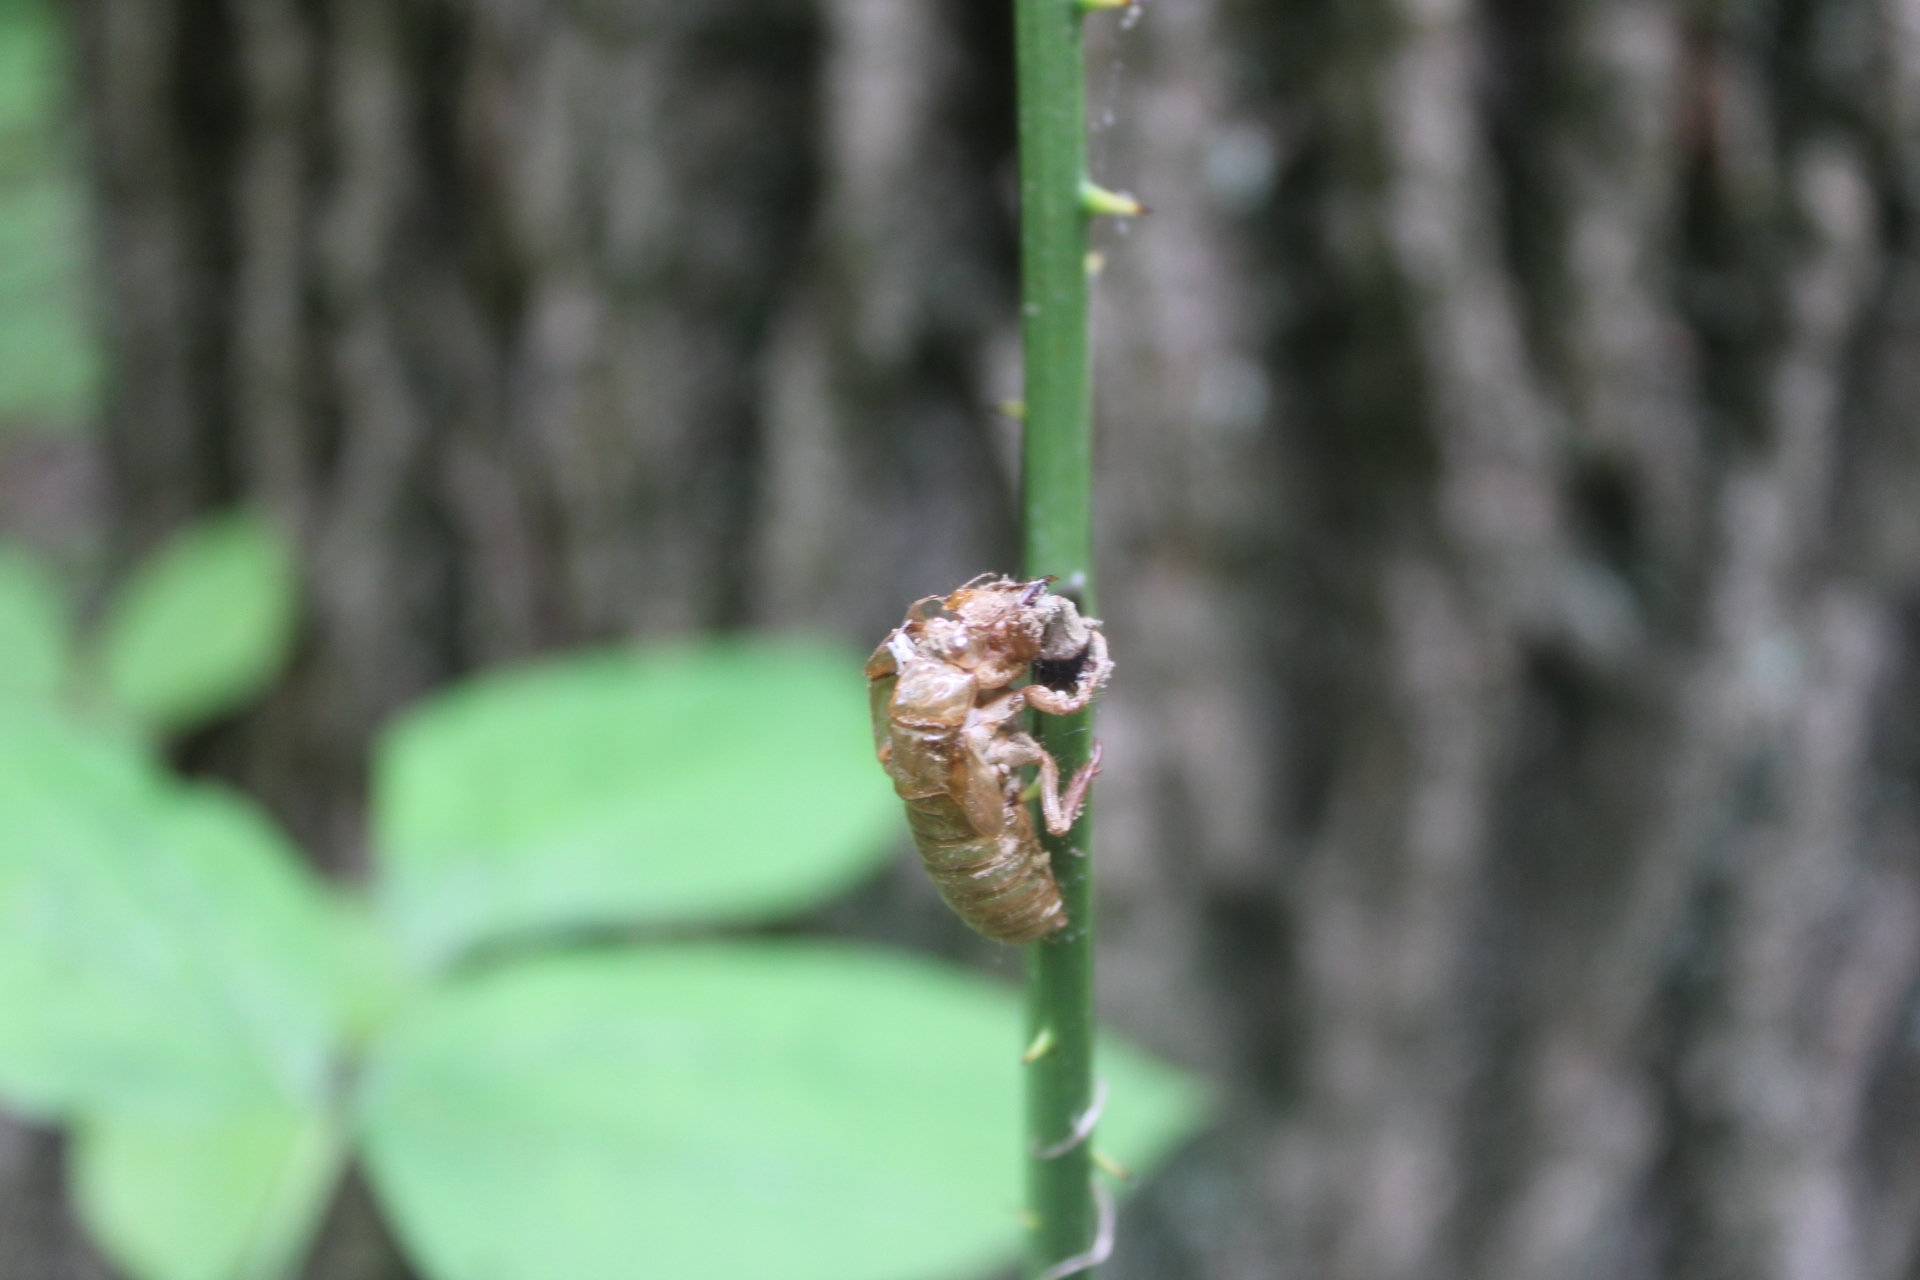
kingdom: Animalia
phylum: Arthropoda
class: Insecta
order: Hemiptera
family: Cicadidae
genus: Magicicada
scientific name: Magicicada
